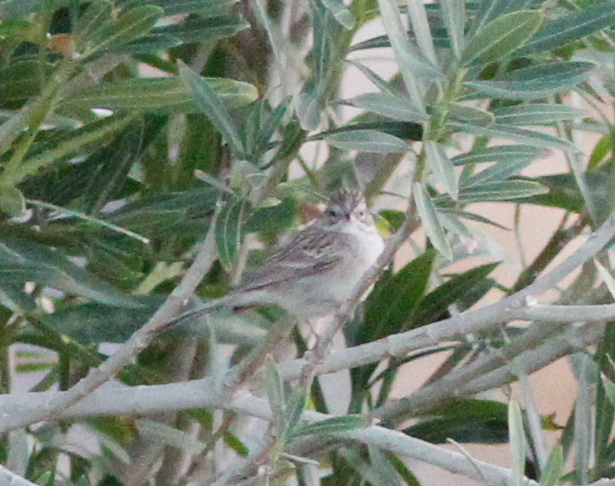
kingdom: Animalia
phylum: Chordata
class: Aves
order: Passeriformes
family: Passerellidae
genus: Spizella
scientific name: Spizella breweri
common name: Brewer's sparrow
